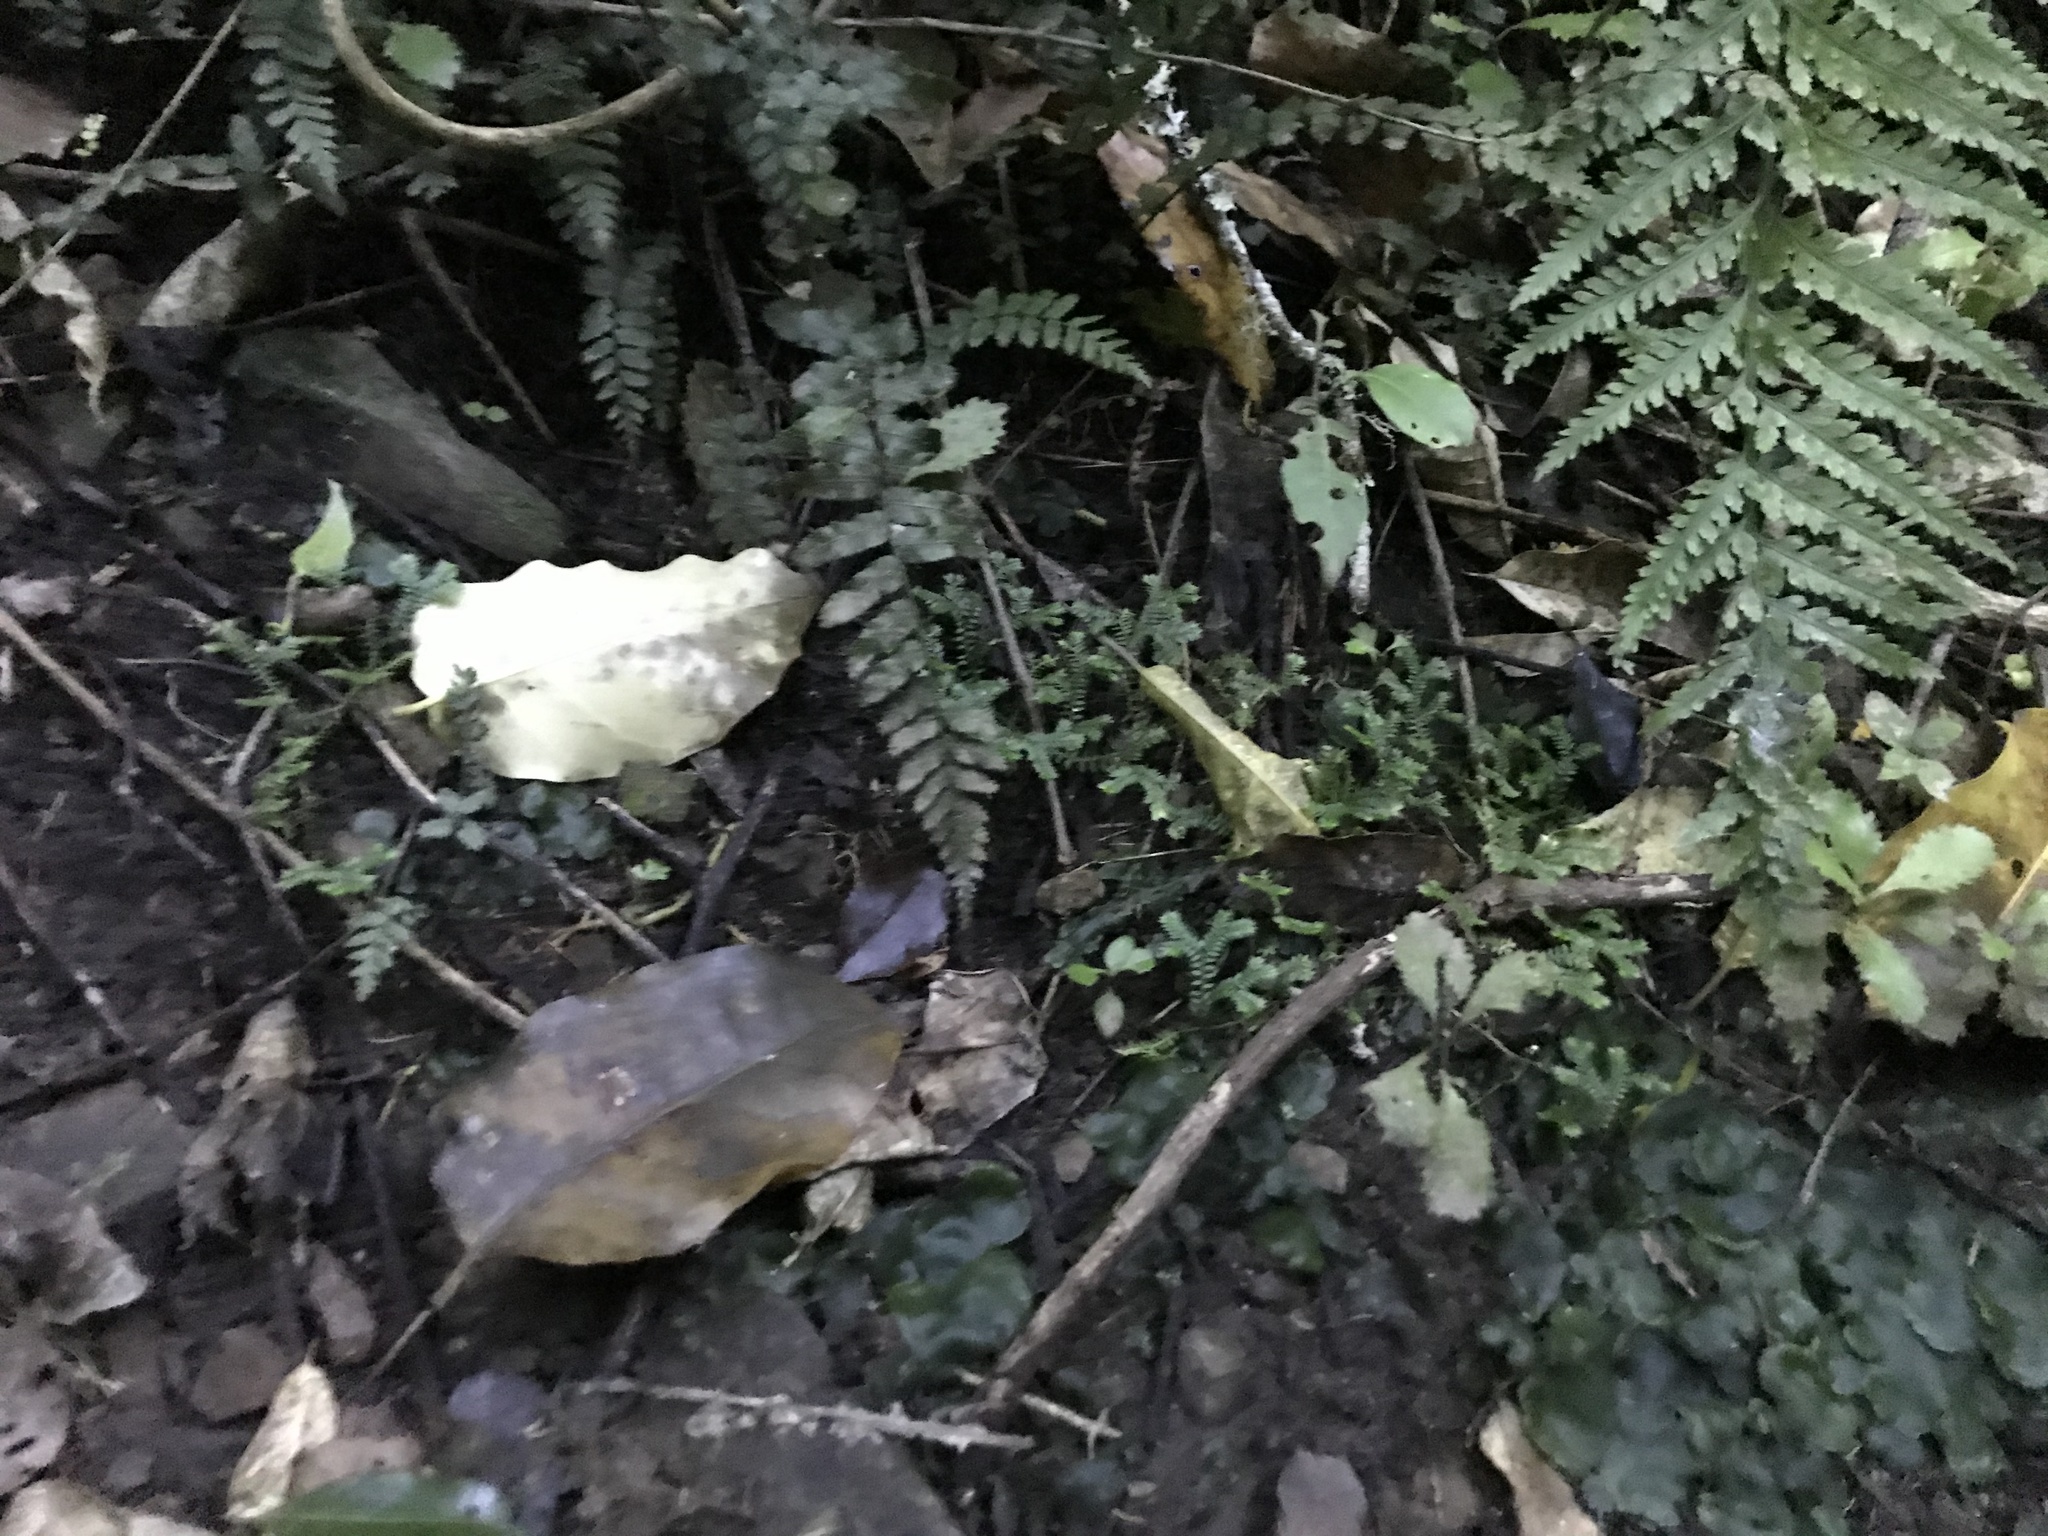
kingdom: Plantae
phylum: Tracheophyta
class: Lycopodiopsida
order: Selaginellales
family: Selaginellaceae
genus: Selaginella
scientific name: Selaginella kraussiana
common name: Krauss' spikemoss
